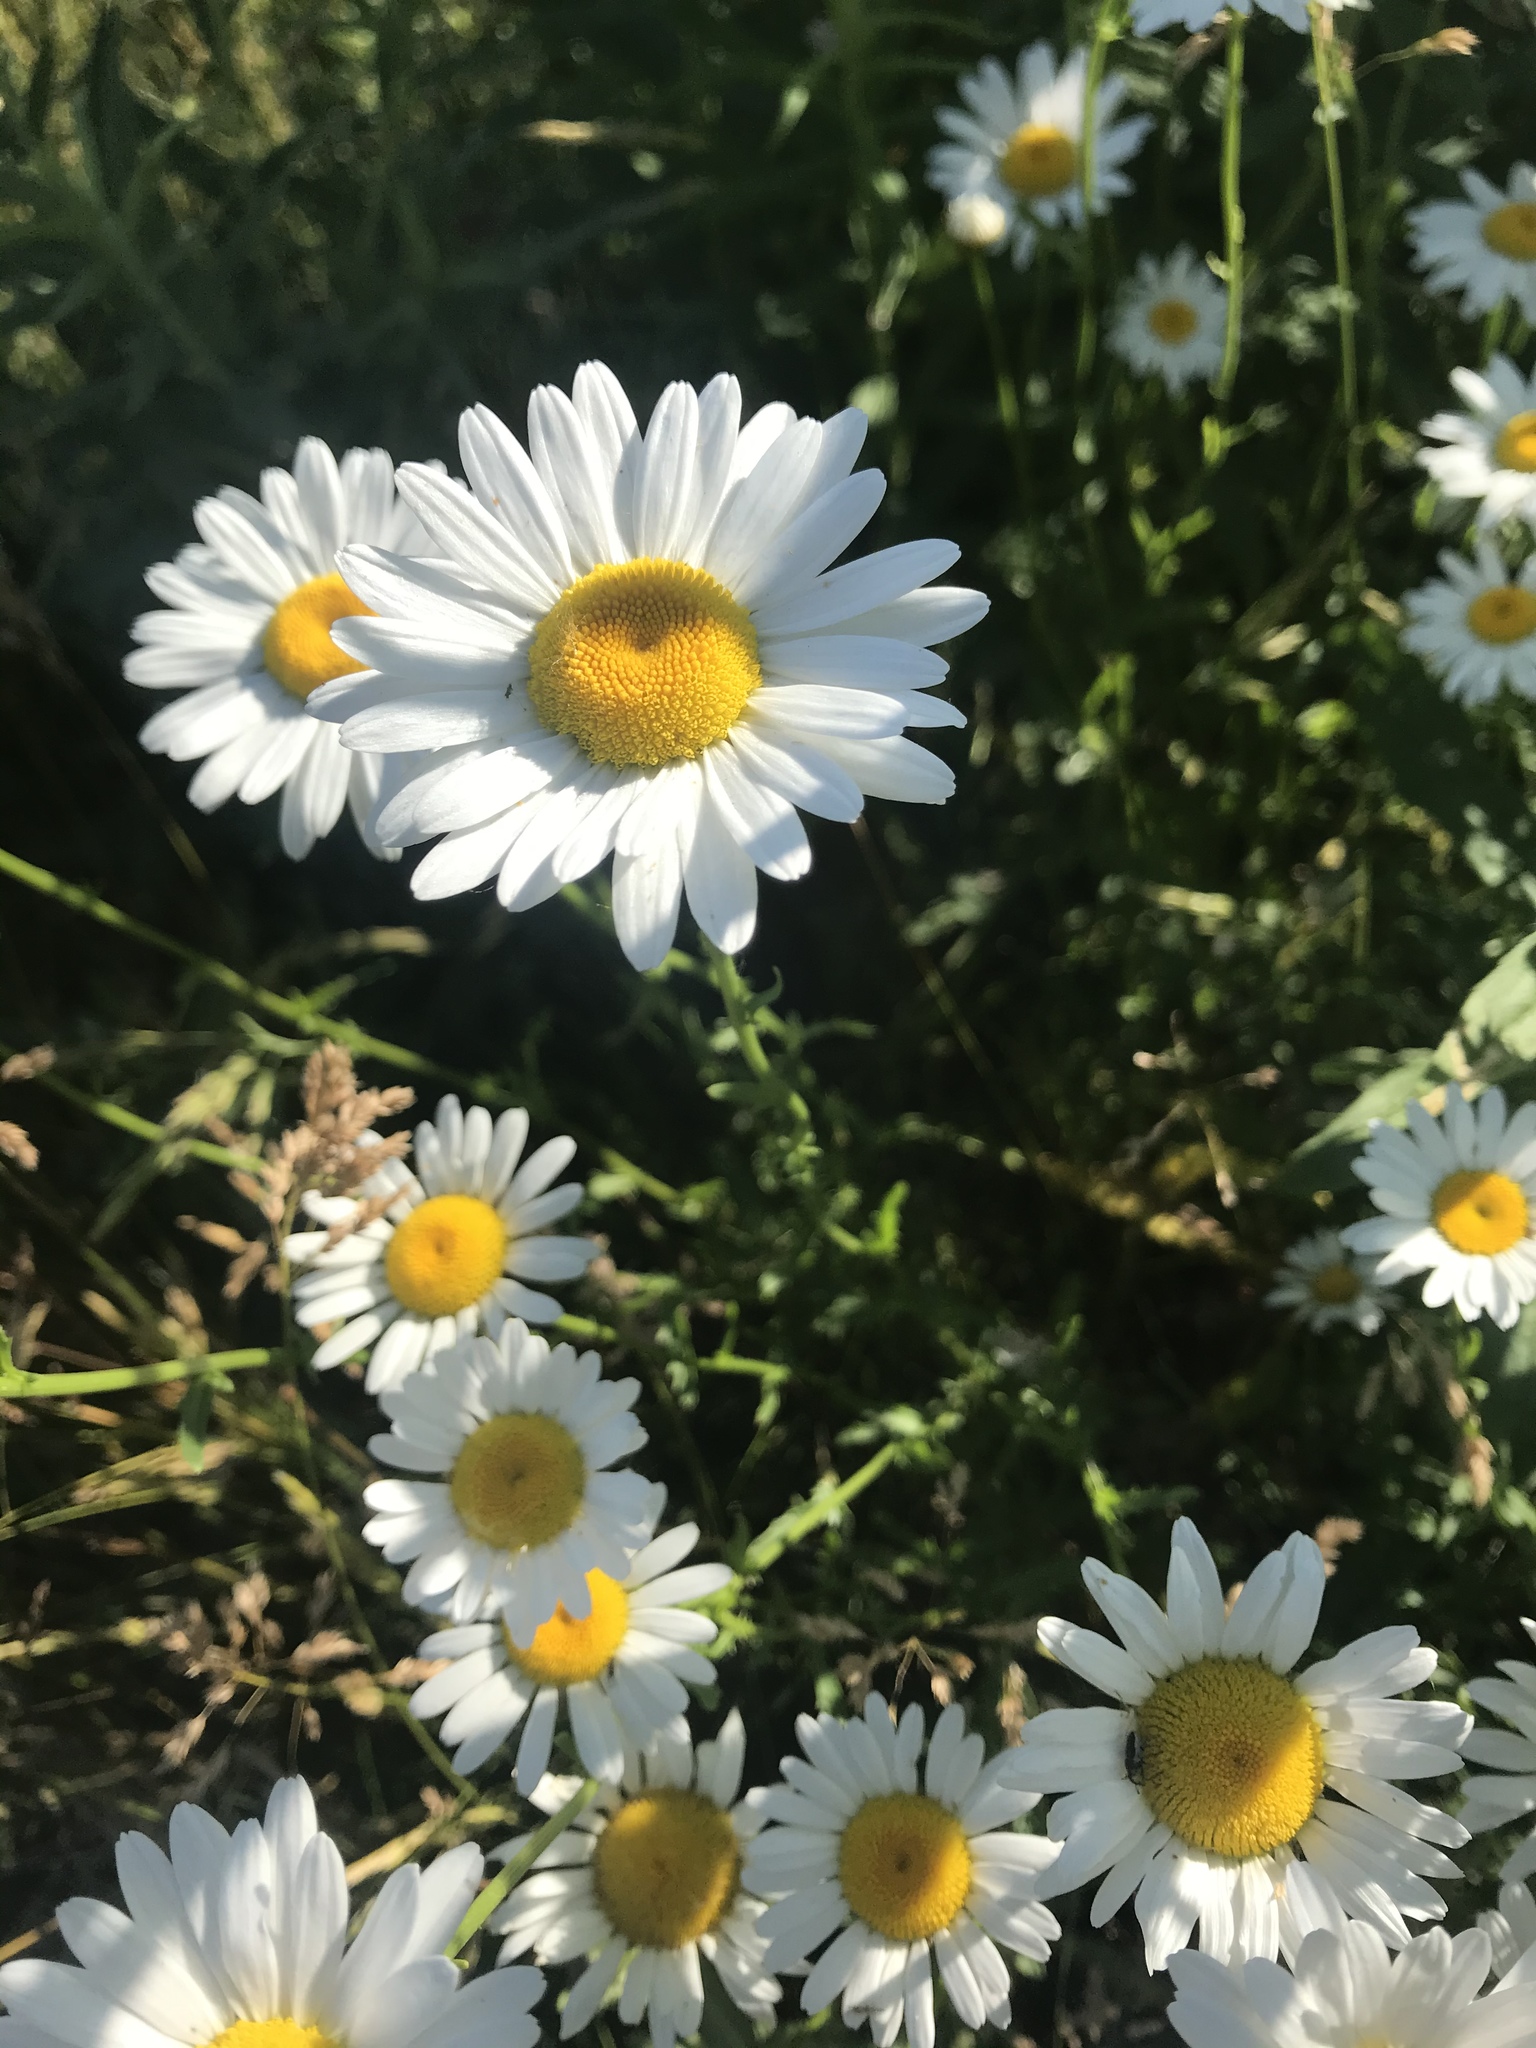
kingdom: Plantae
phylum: Tracheophyta
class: Magnoliopsida
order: Asterales
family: Asteraceae
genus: Leucanthemum
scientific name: Leucanthemum vulgare
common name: Oxeye daisy
